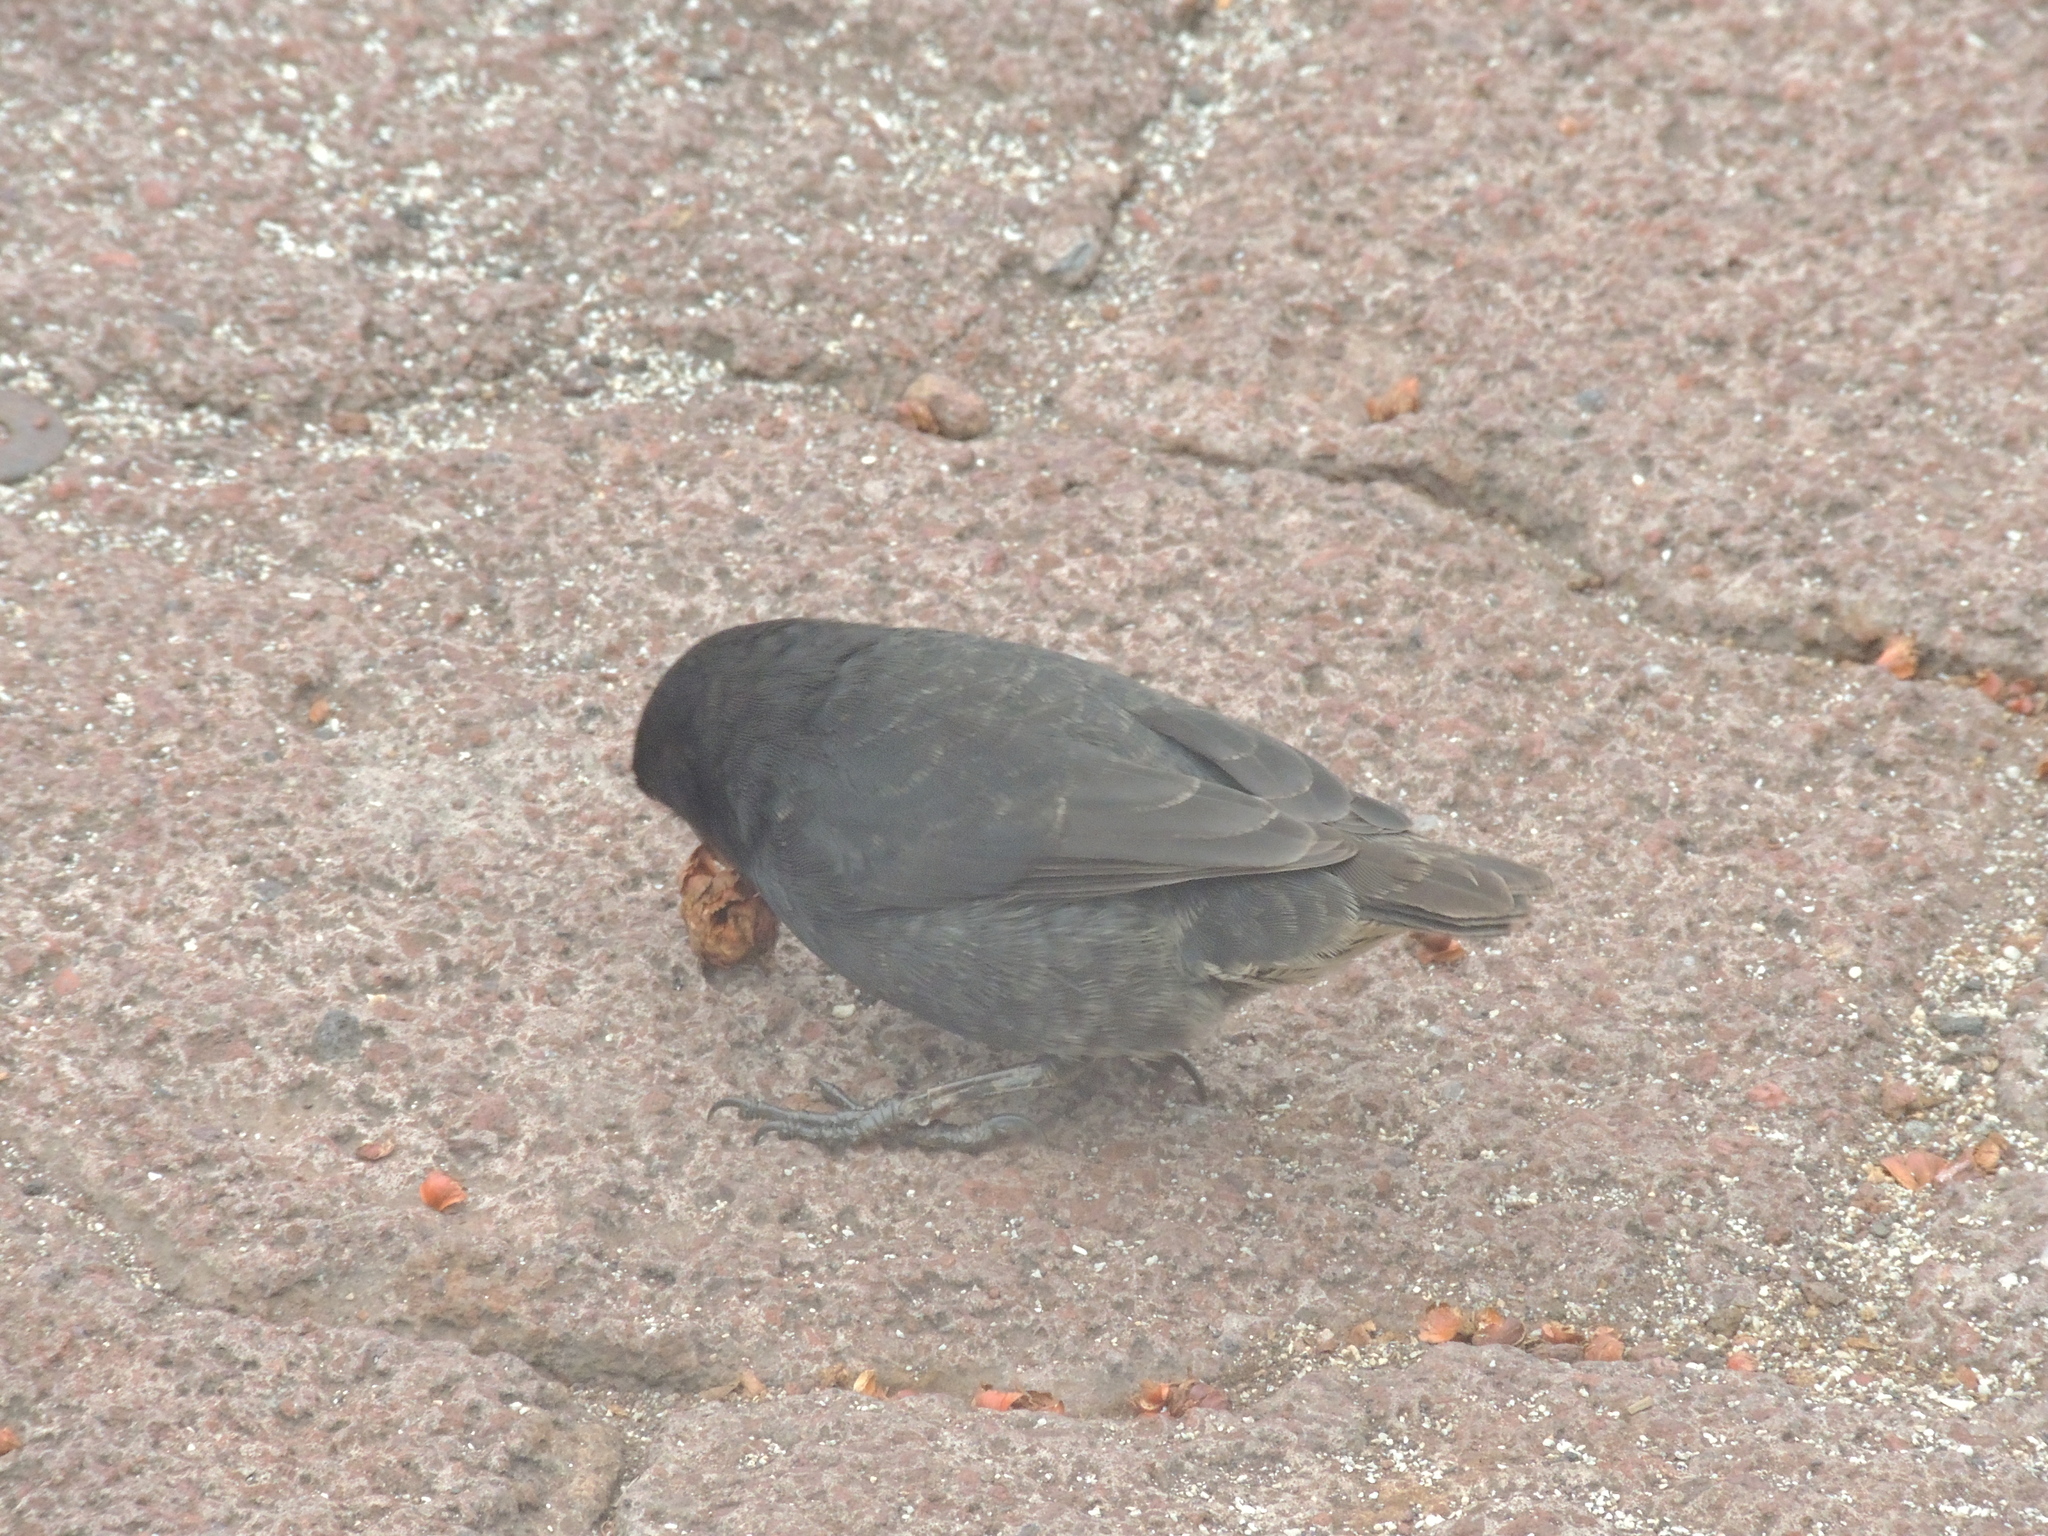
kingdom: Animalia
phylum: Chordata
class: Aves
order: Passeriformes
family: Thraupidae
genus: Geospiza
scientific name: Geospiza fortis
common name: Medium ground finch
